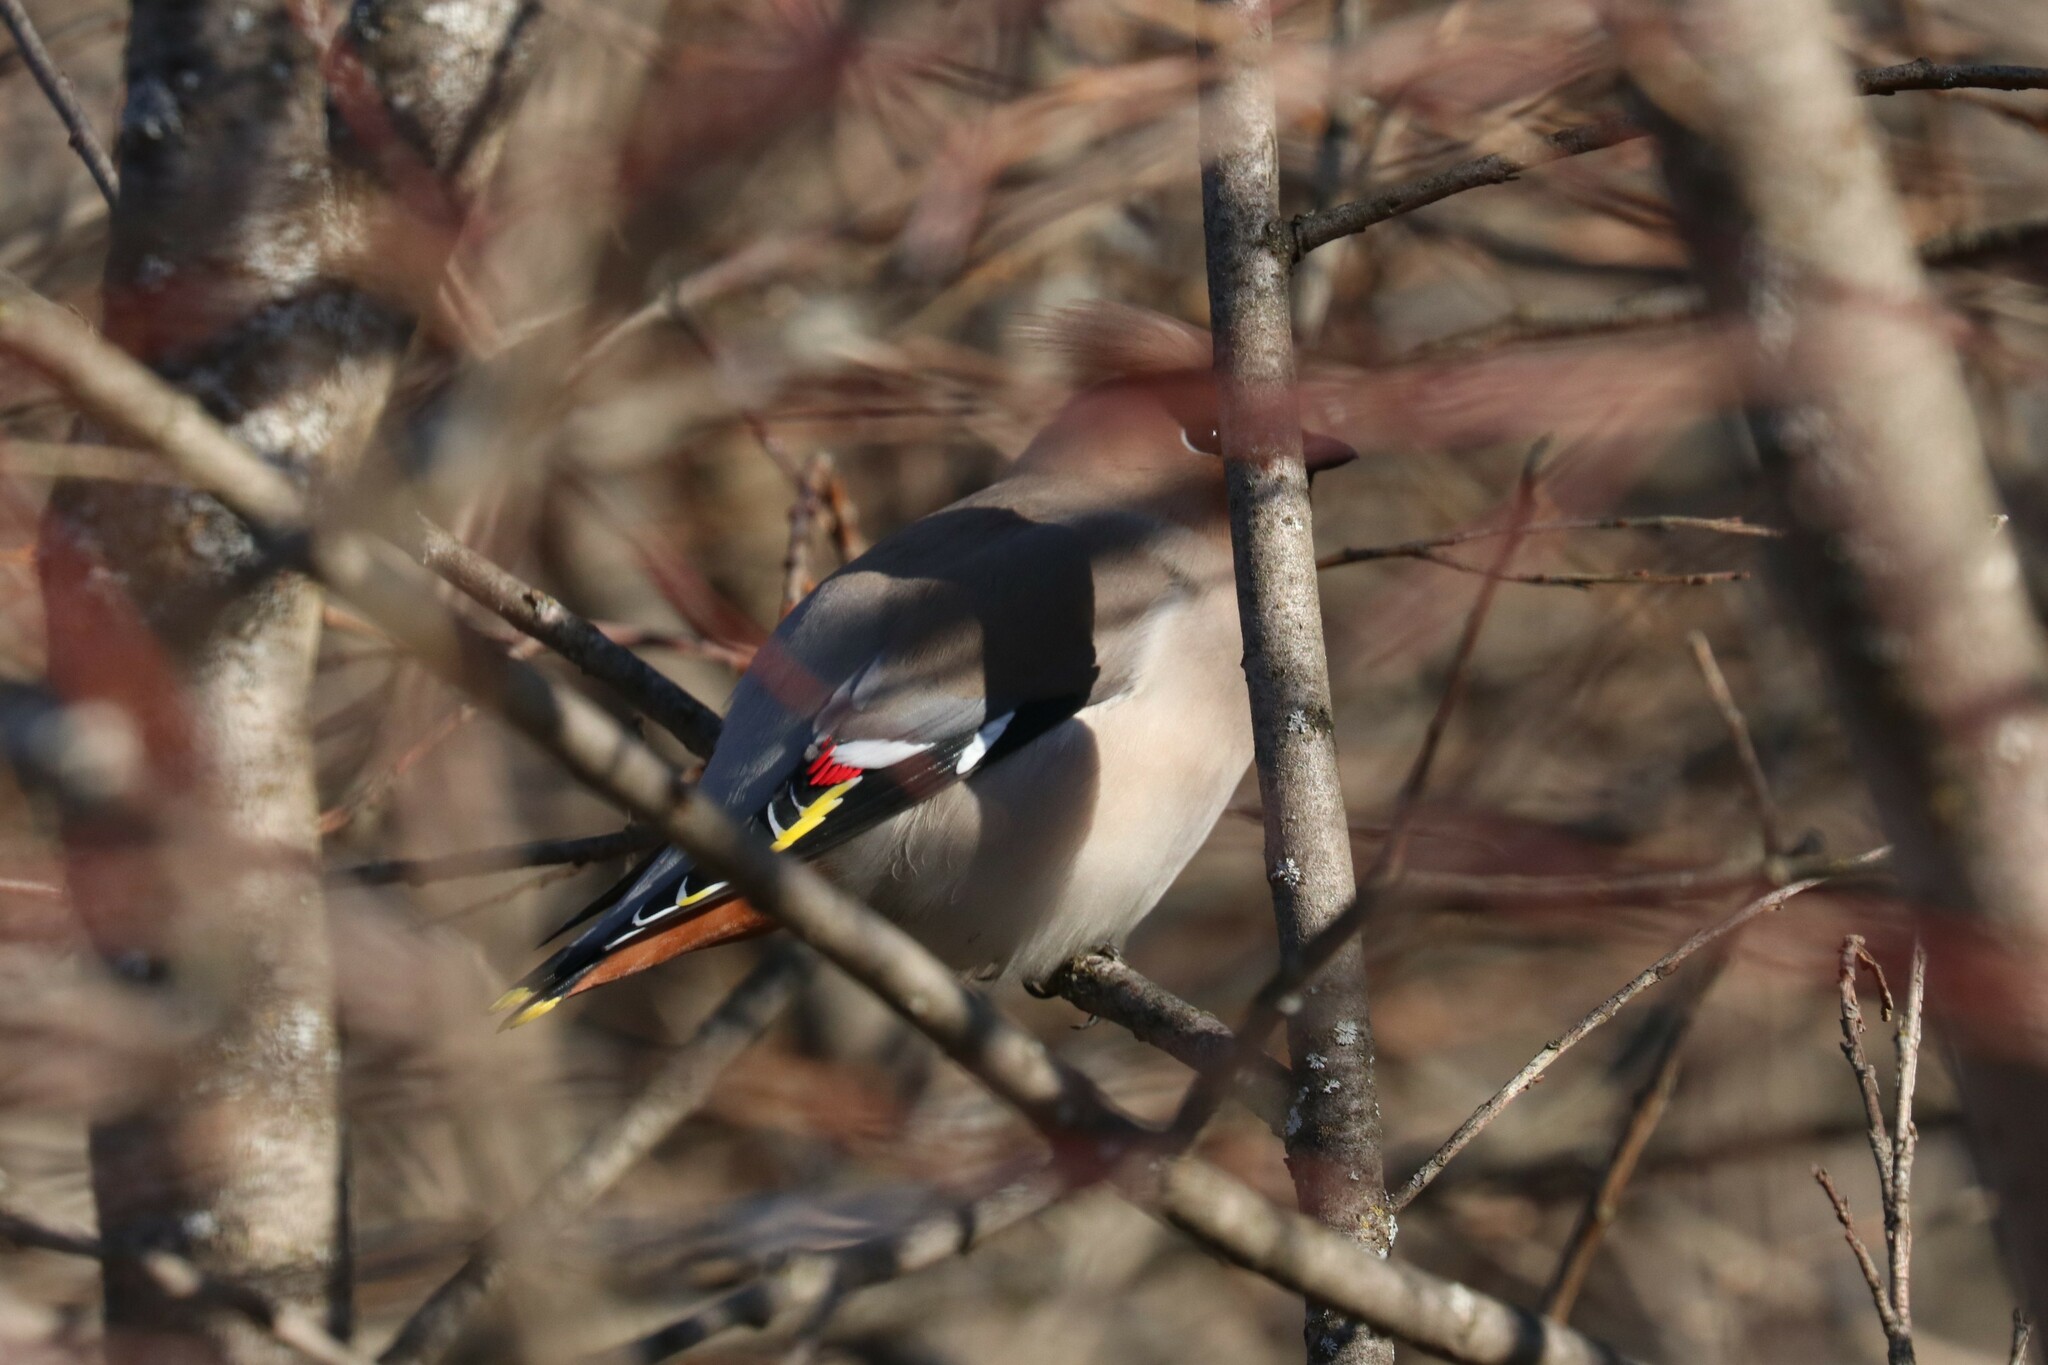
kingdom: Animalia
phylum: Chordata
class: Aves
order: Passeriformes
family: Bombycillidae
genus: Bombycilla
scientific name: Bombycilla garrulus
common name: Bohemian waxwing
